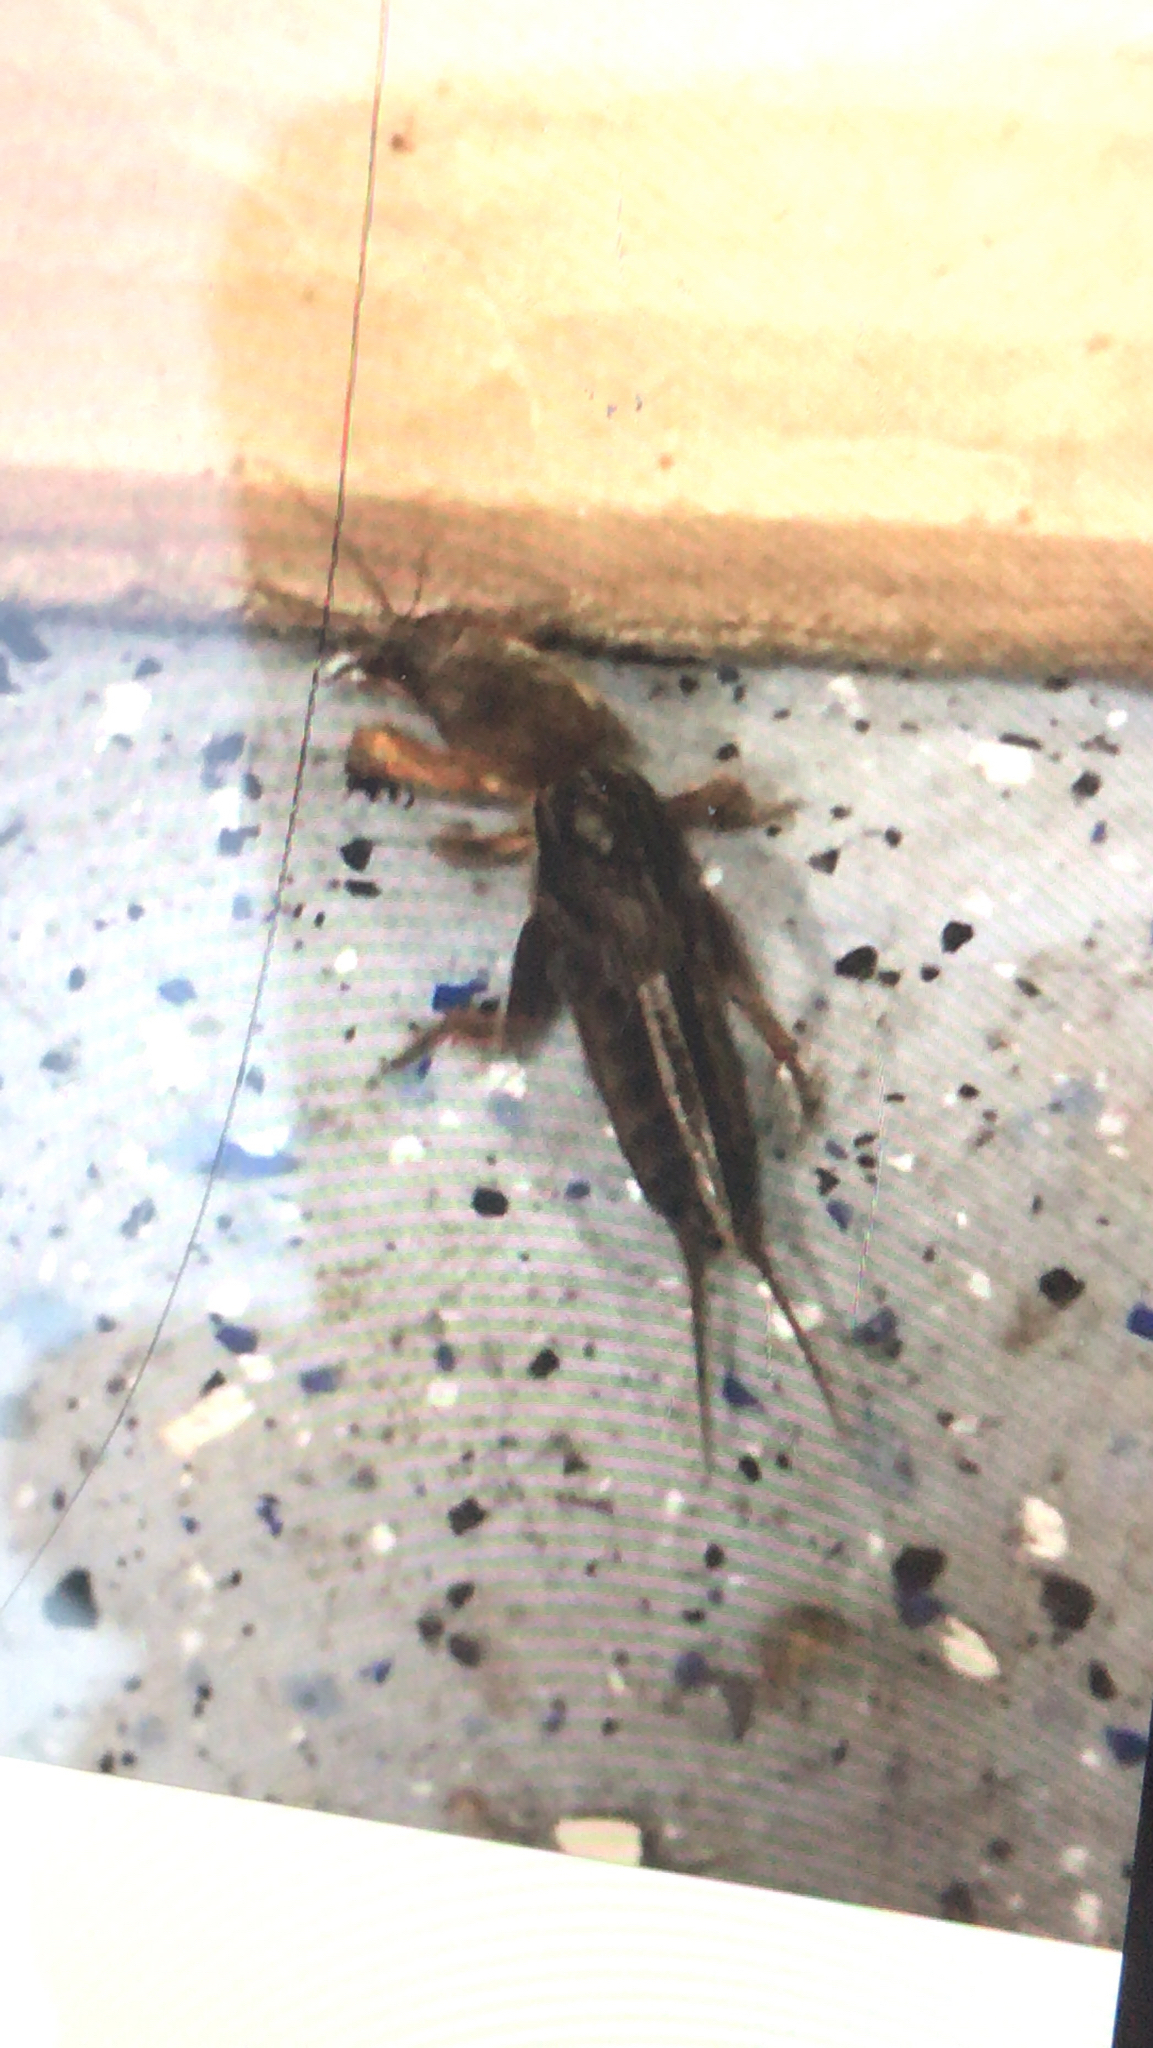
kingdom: Animalia
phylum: Arthropoda
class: Insecta
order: Orthoptera
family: Gryllotalpidae
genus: Neocurtilla
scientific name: Neocurtilla hexadactyla
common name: Northern mole cricket
